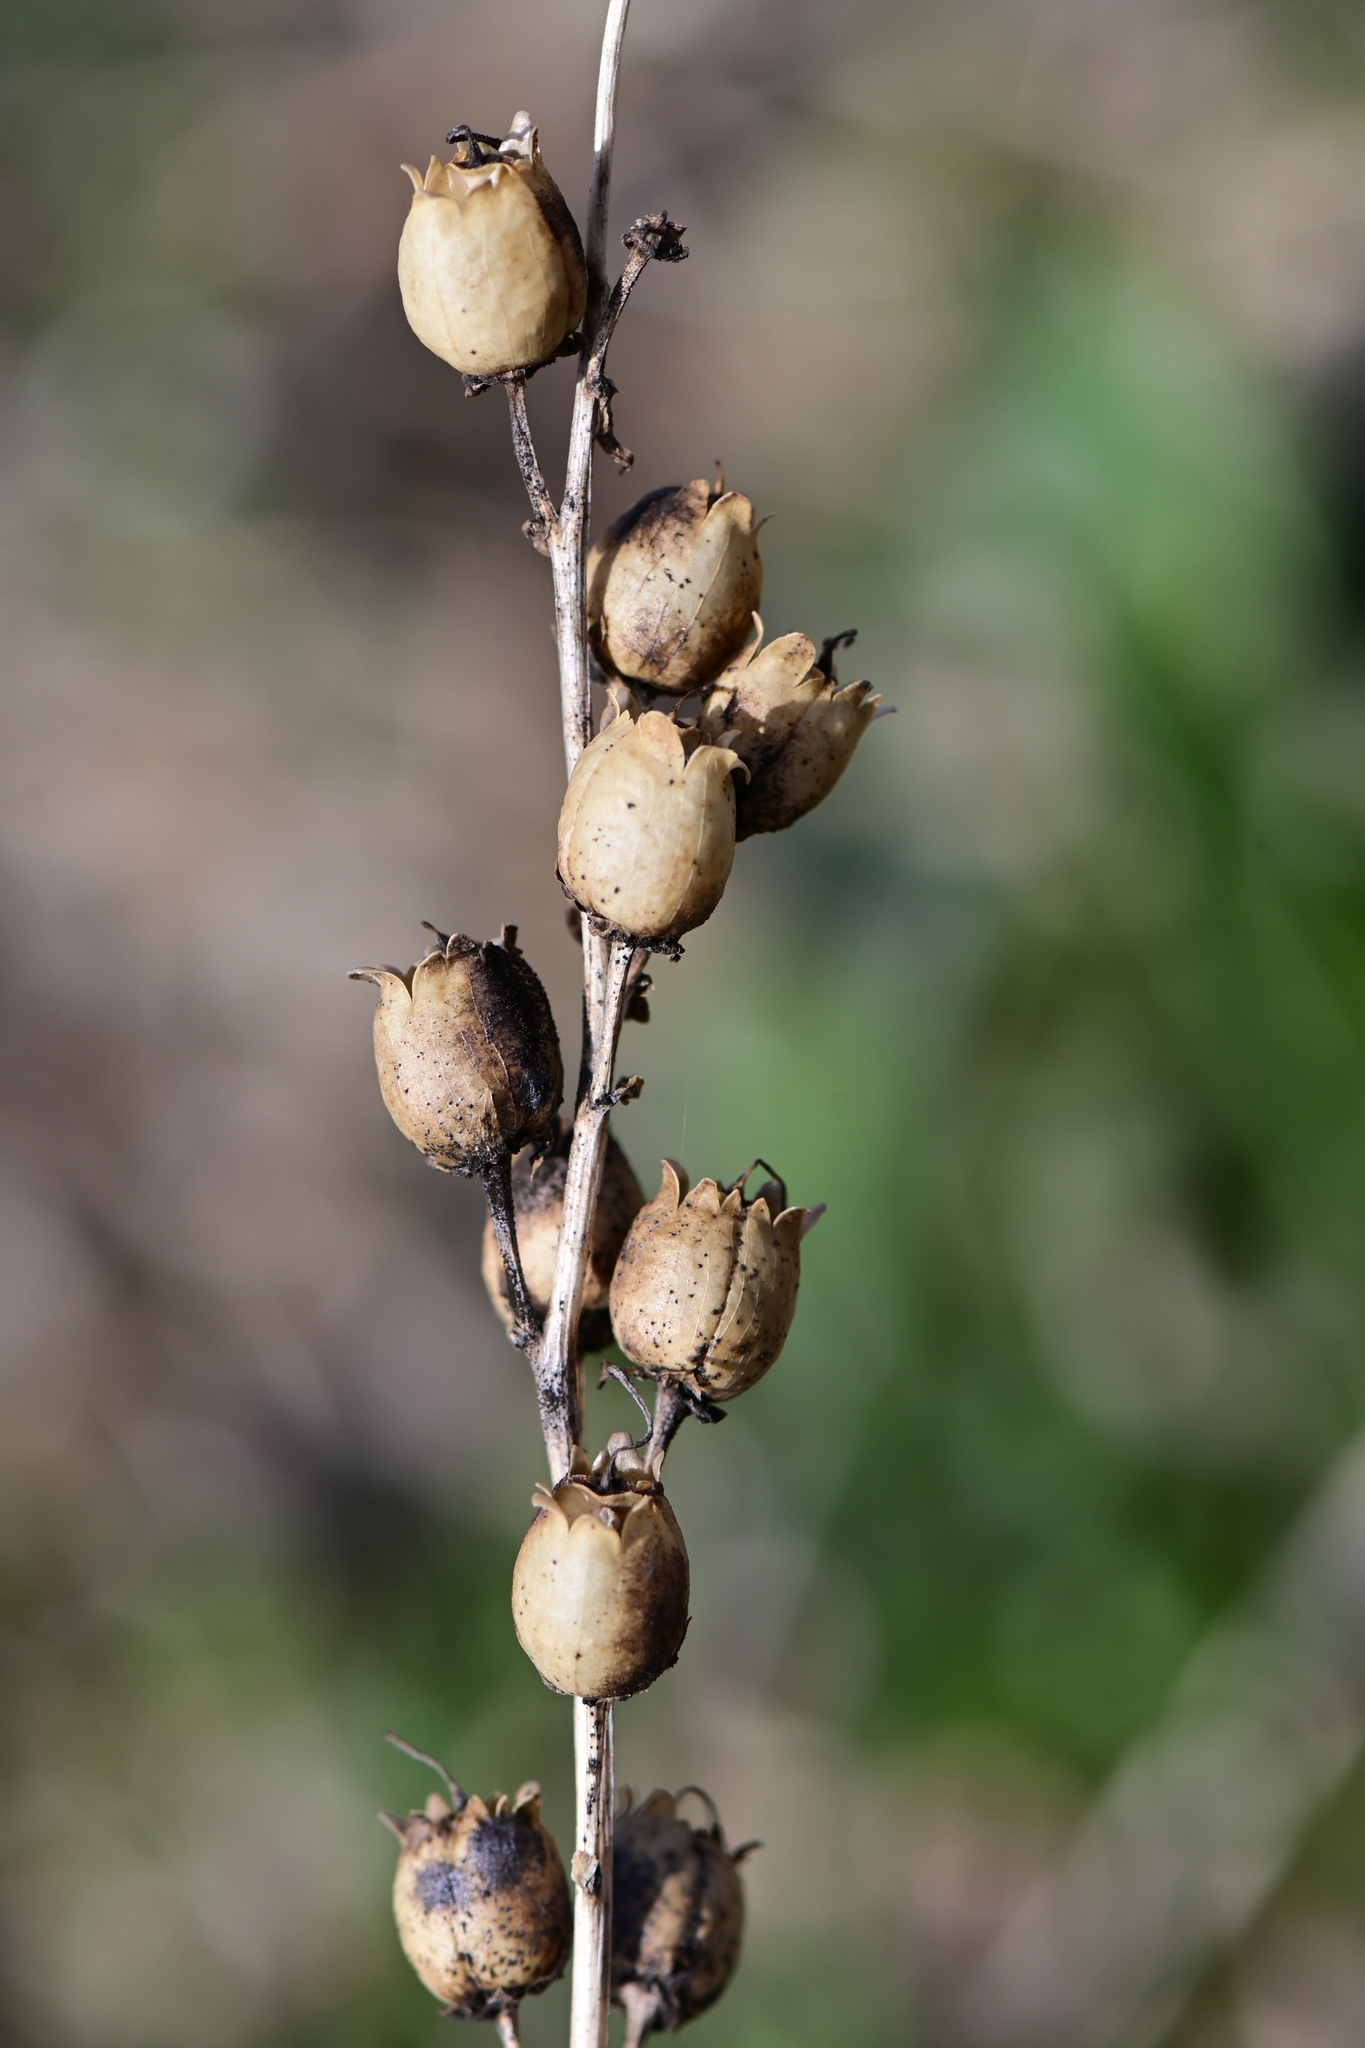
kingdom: Plantae
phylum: Tracheophyta
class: Magnoliopsida
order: Lamiales
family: Plantaginaceae
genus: Linaria
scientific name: Linaria vulgaris
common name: Butter and eggs
